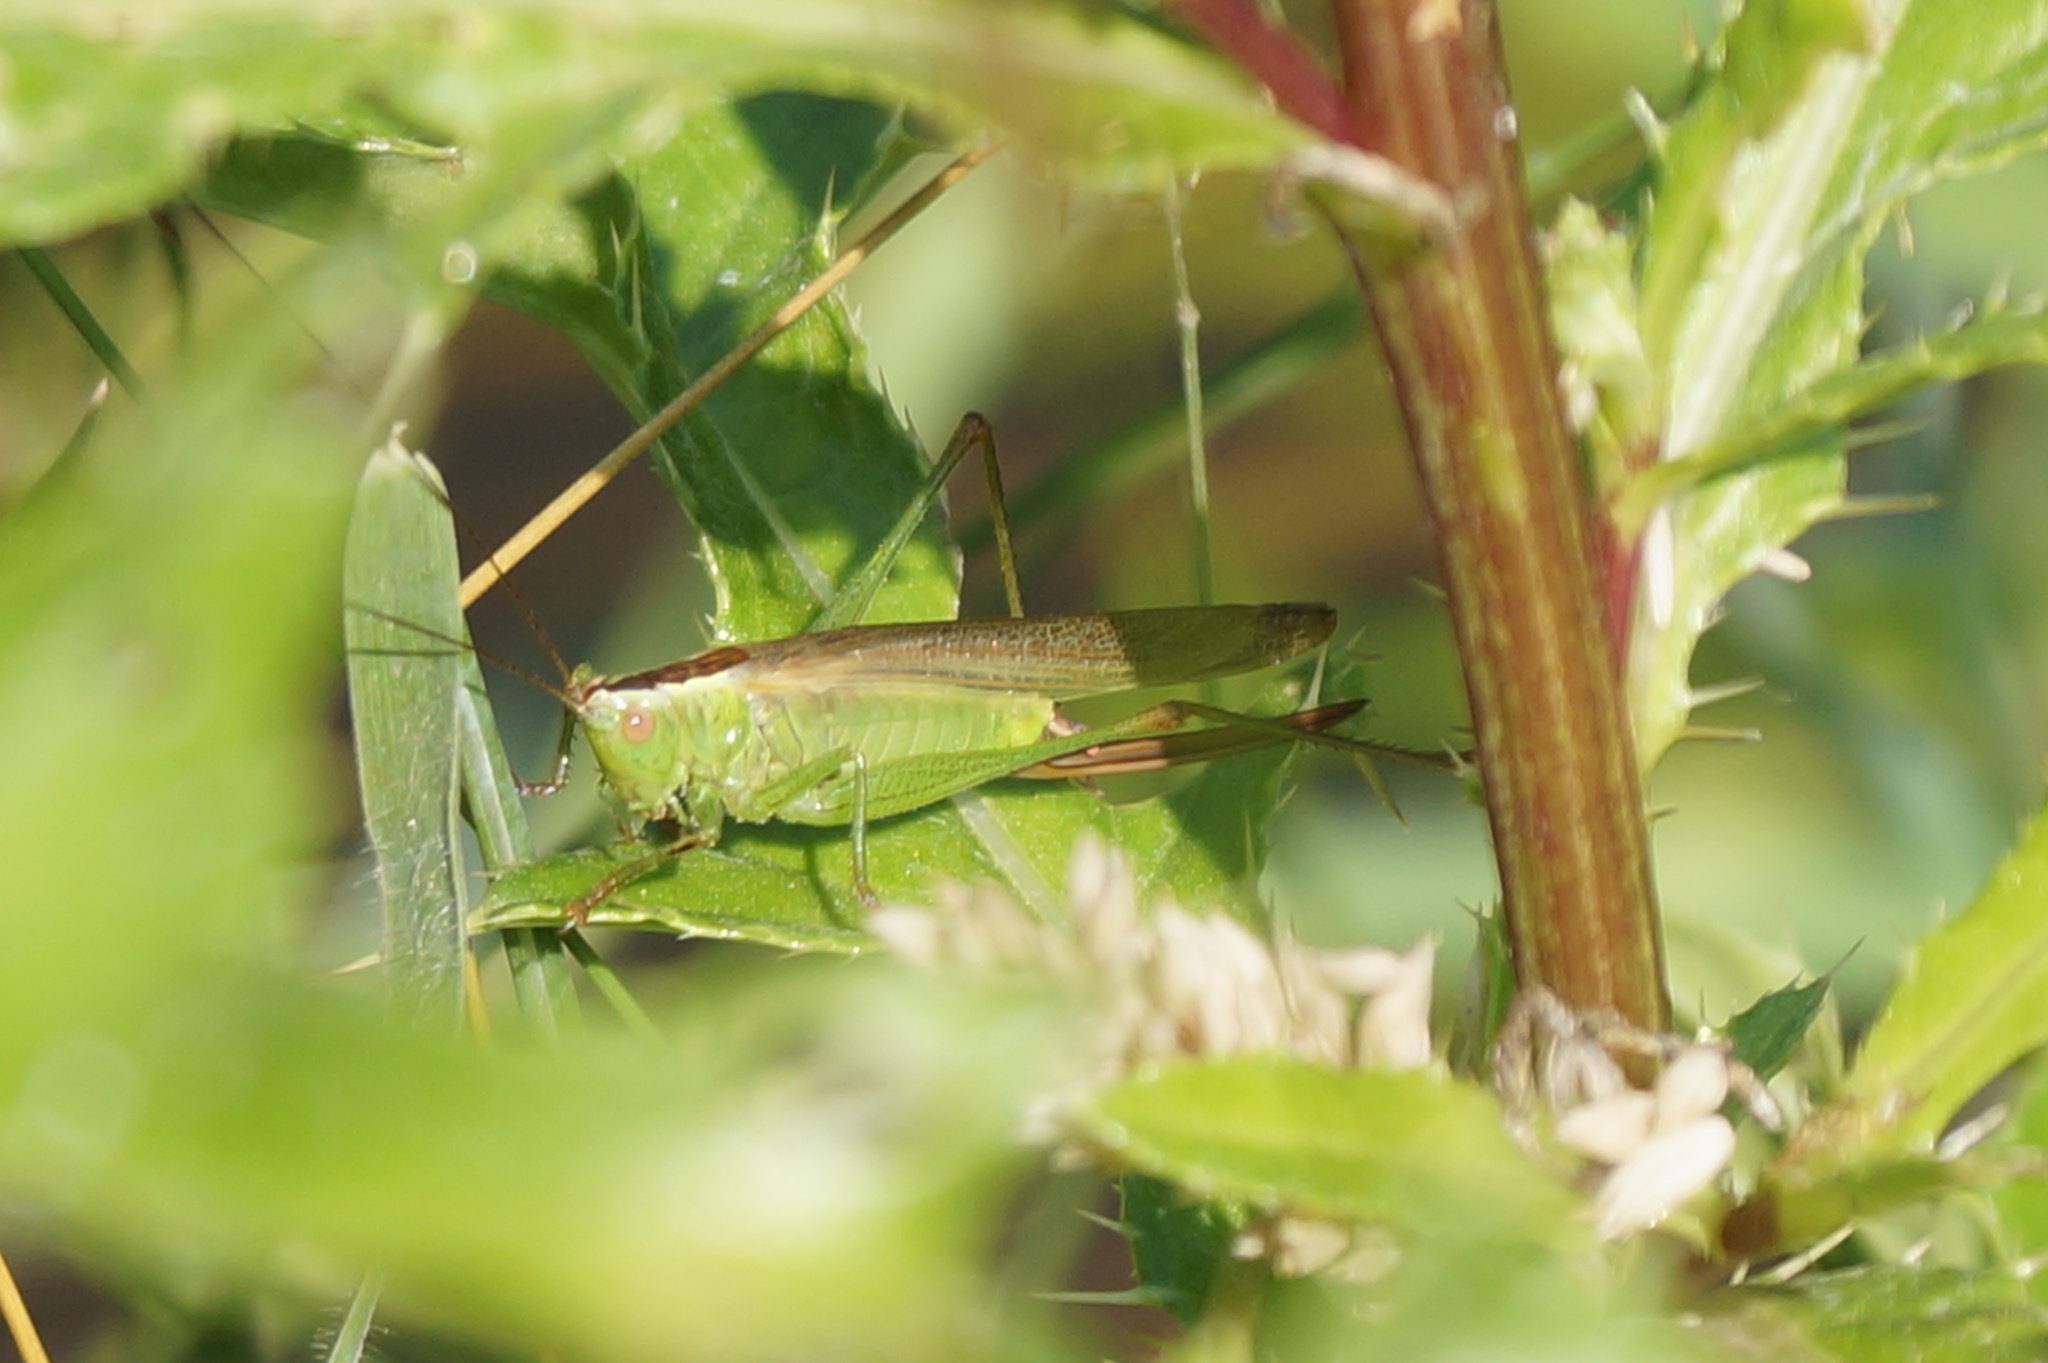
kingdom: Animalia
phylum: Arthropoda
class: Insecta
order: Orthoptera
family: Tettigoniidae
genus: Conocephalus
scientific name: Conocephalus fuscus
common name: Long-winged conehead
